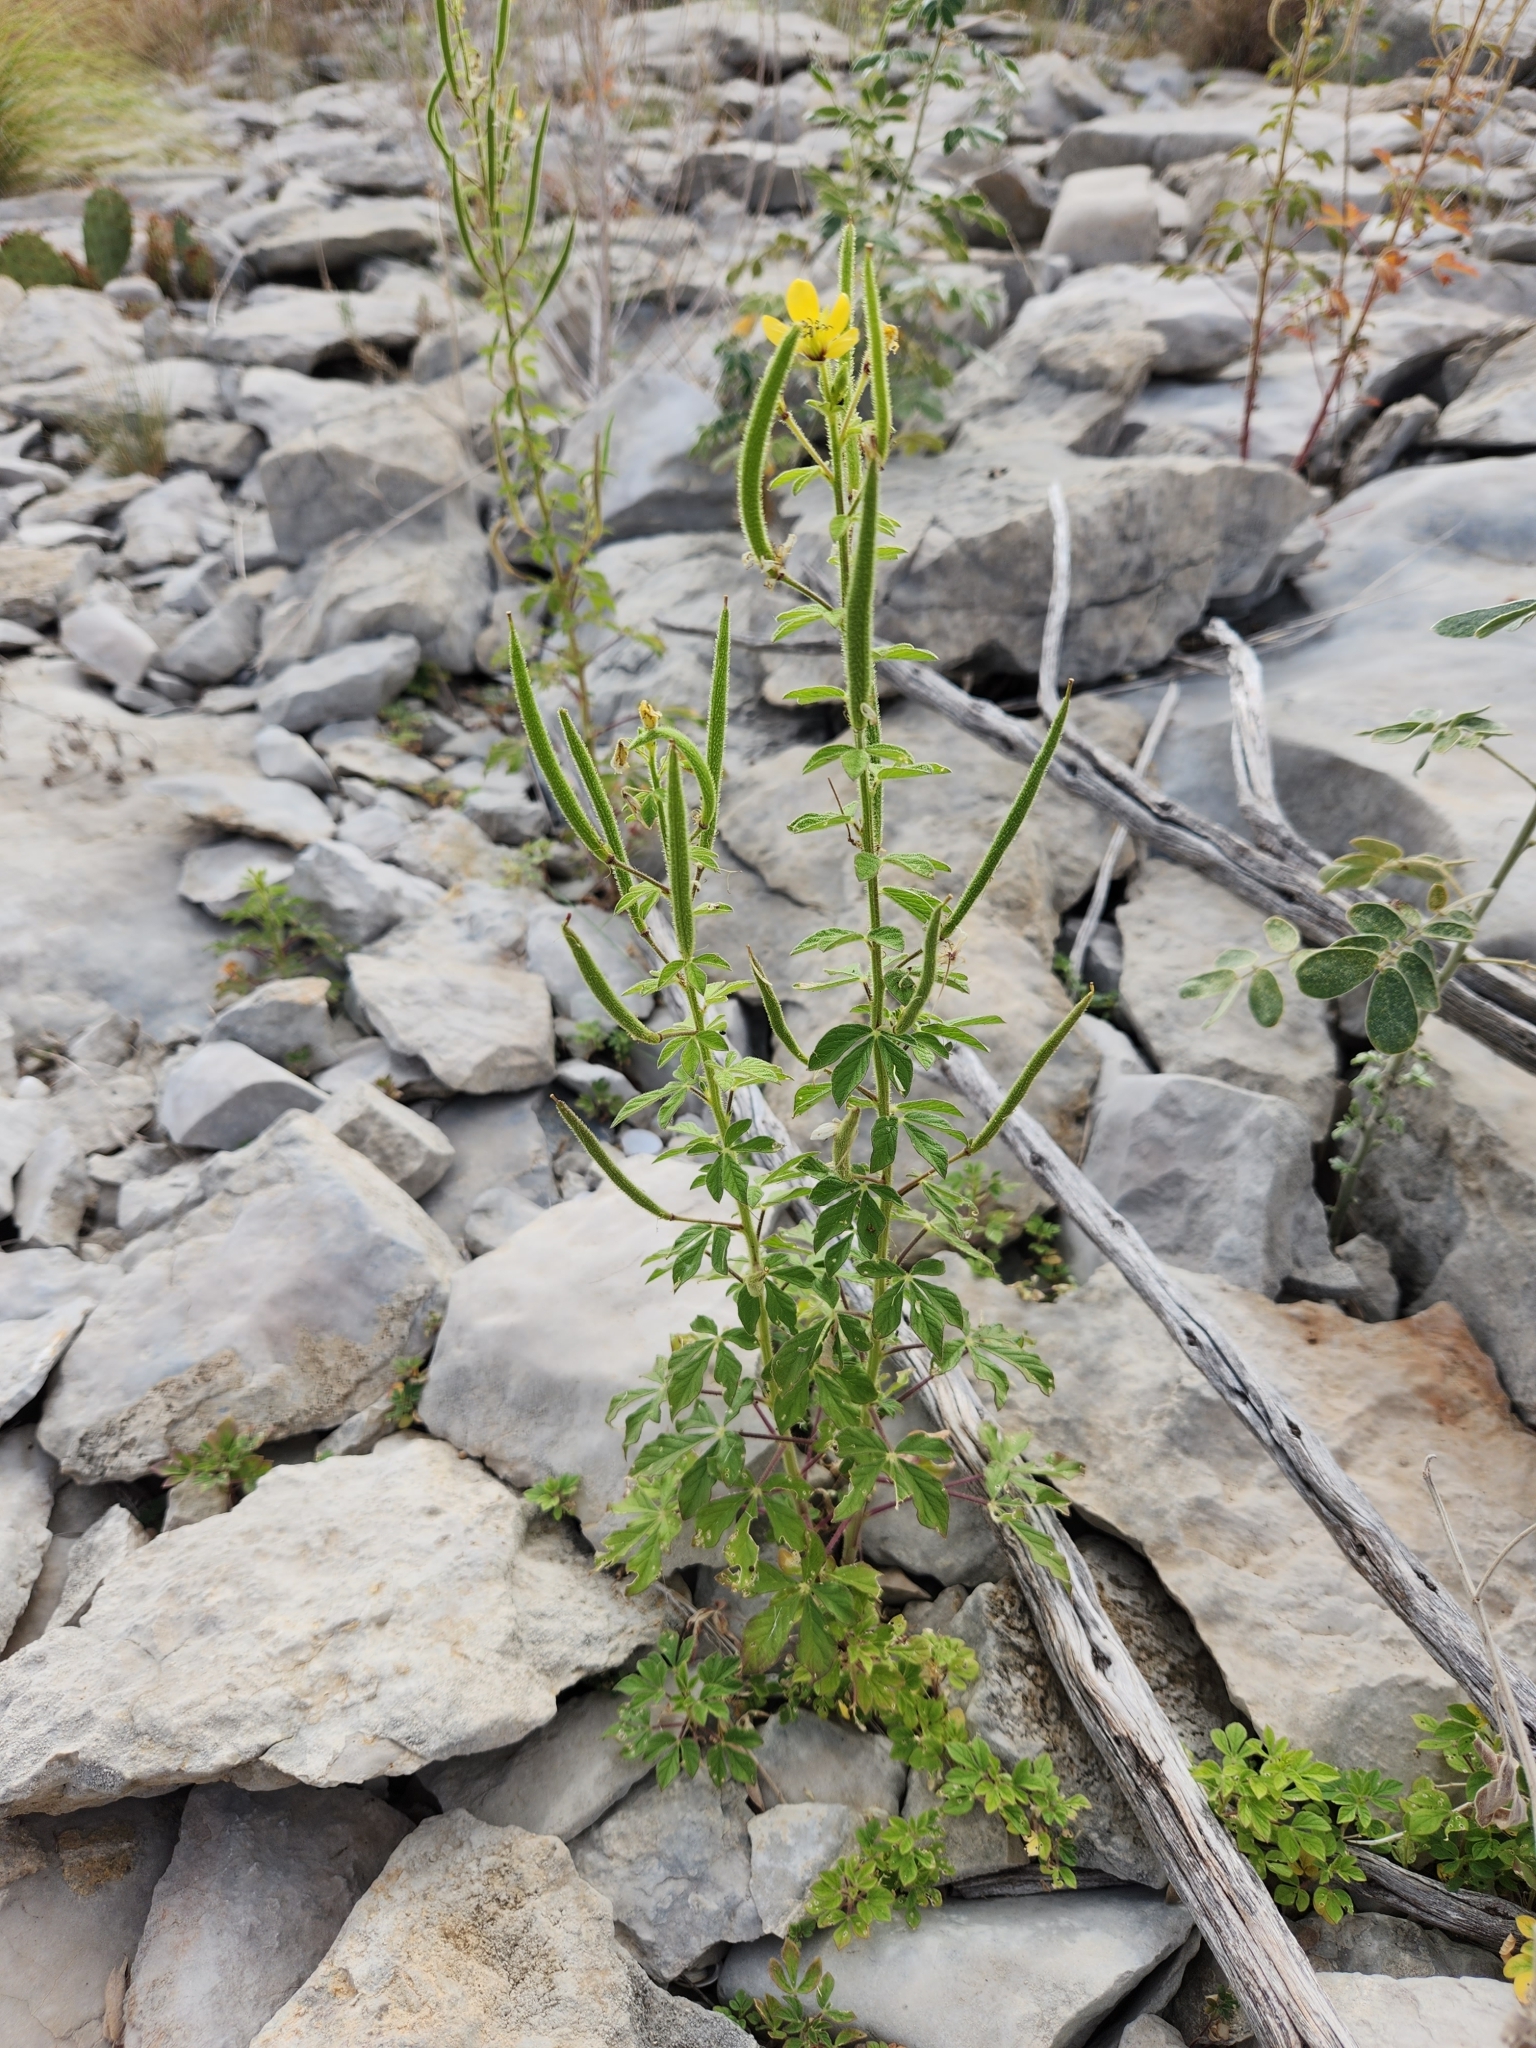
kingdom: Plantae
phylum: Tracheophyta
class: Magnoliopsida
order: Brassicales
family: Cleomaceae
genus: Arivela
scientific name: Arivela viscosa
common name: Asian spiderflower
